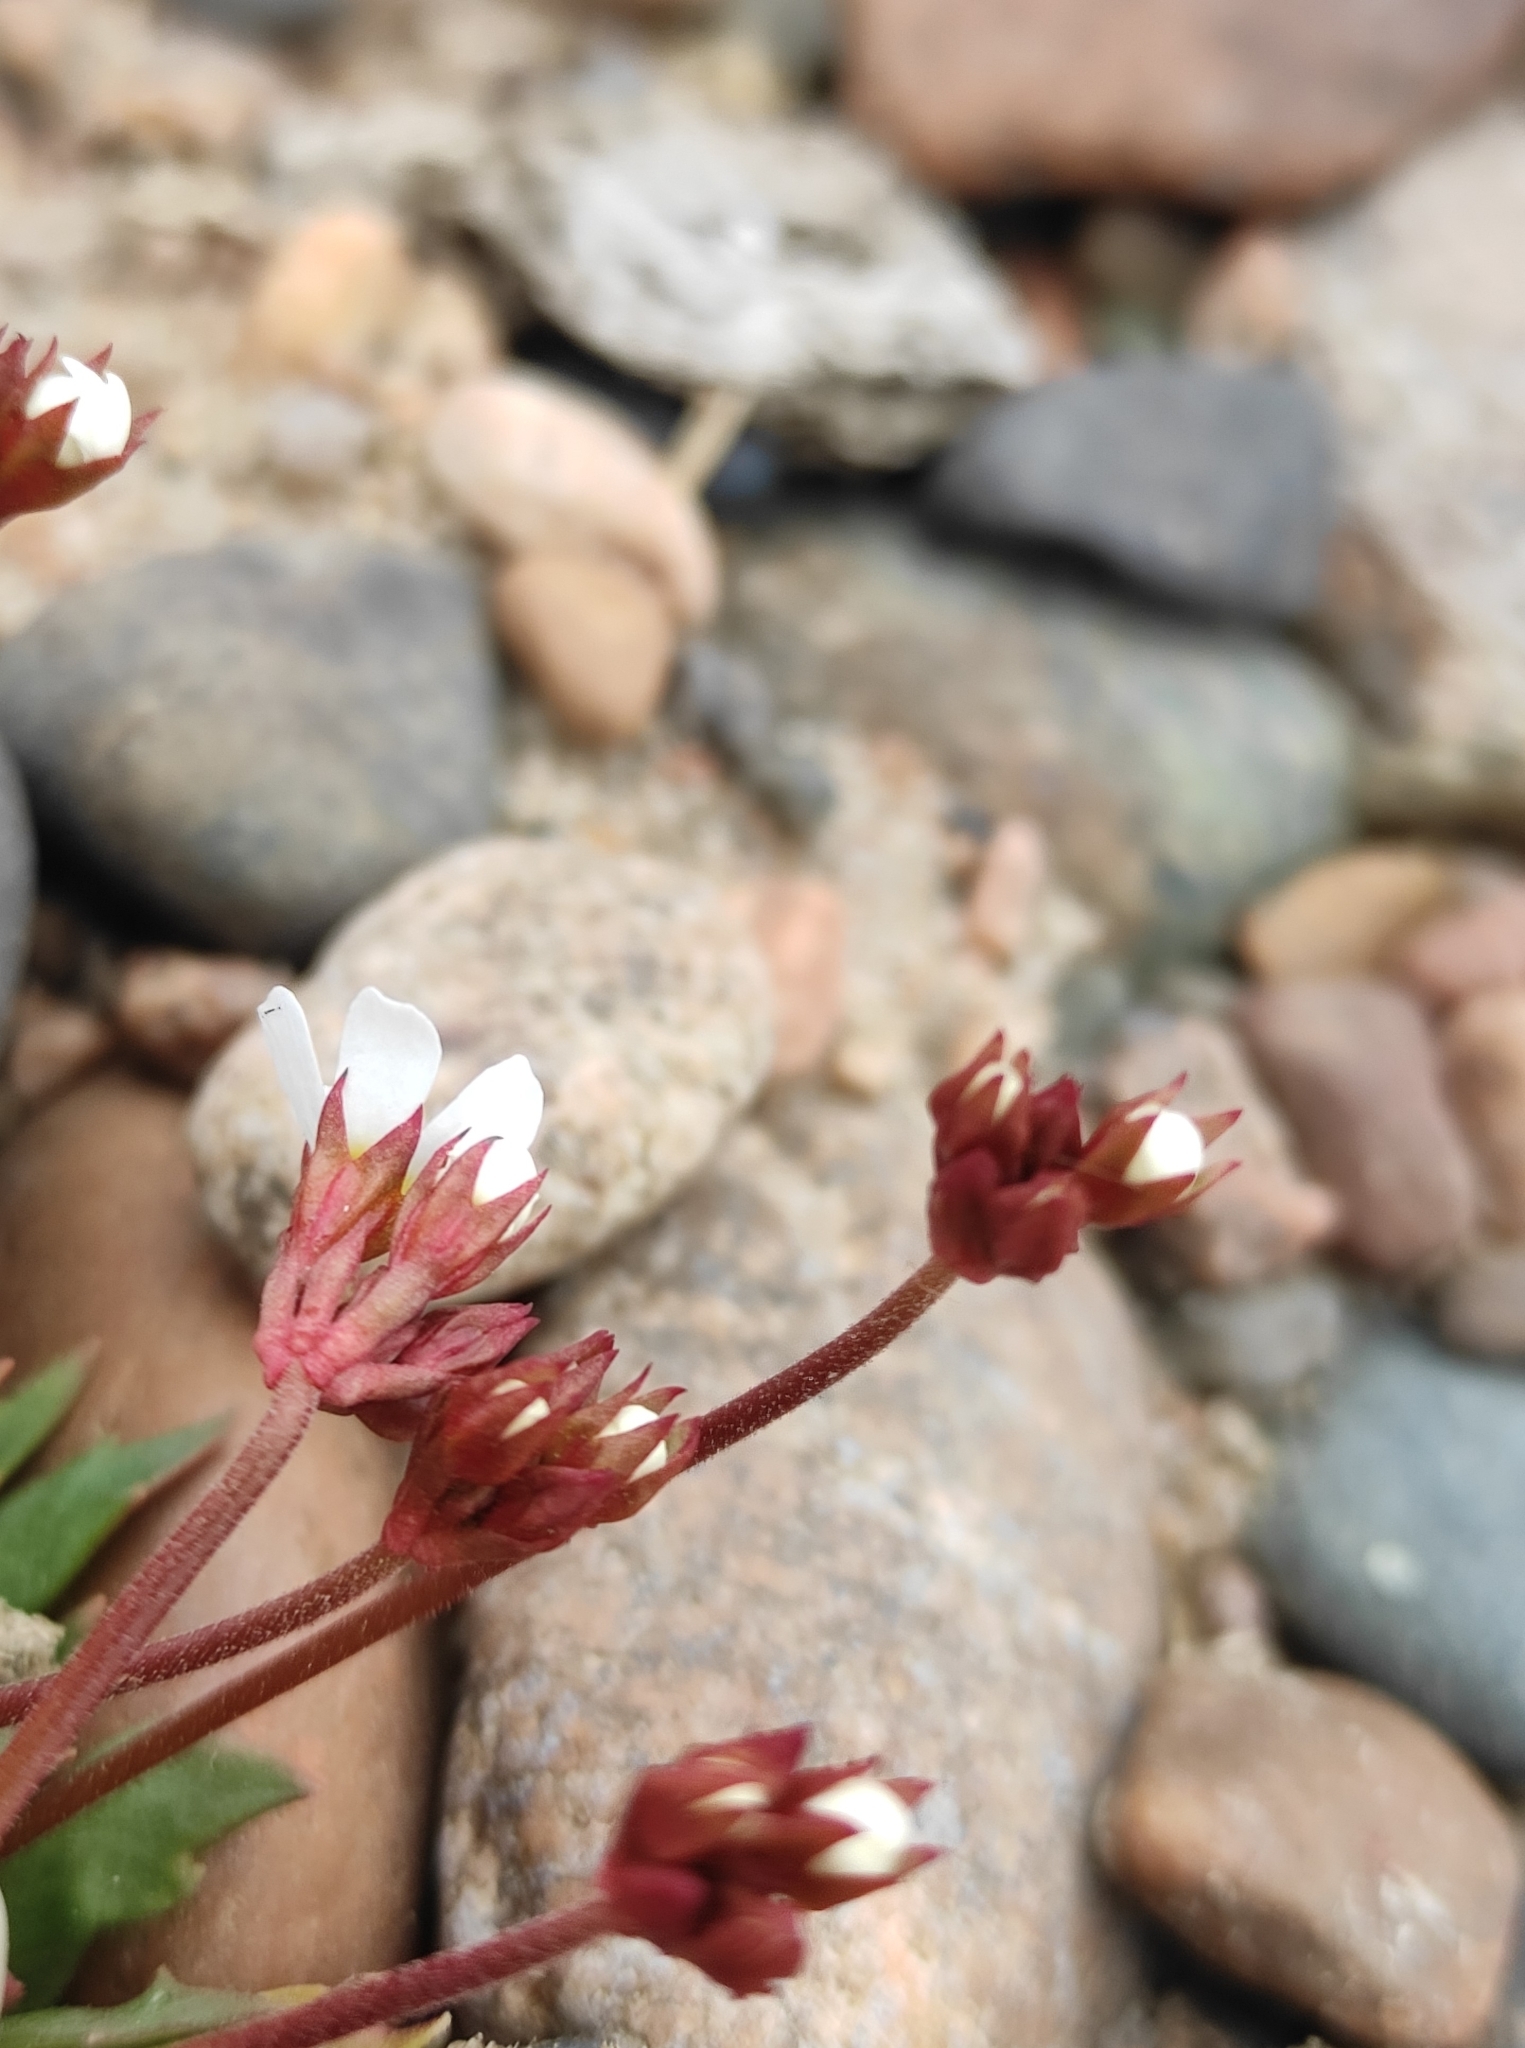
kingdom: Plantae
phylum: Tracheophyta
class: Magnoliopsida
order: Ericales
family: Primulaceae
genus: Androsace
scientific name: Androsace lactiflora
